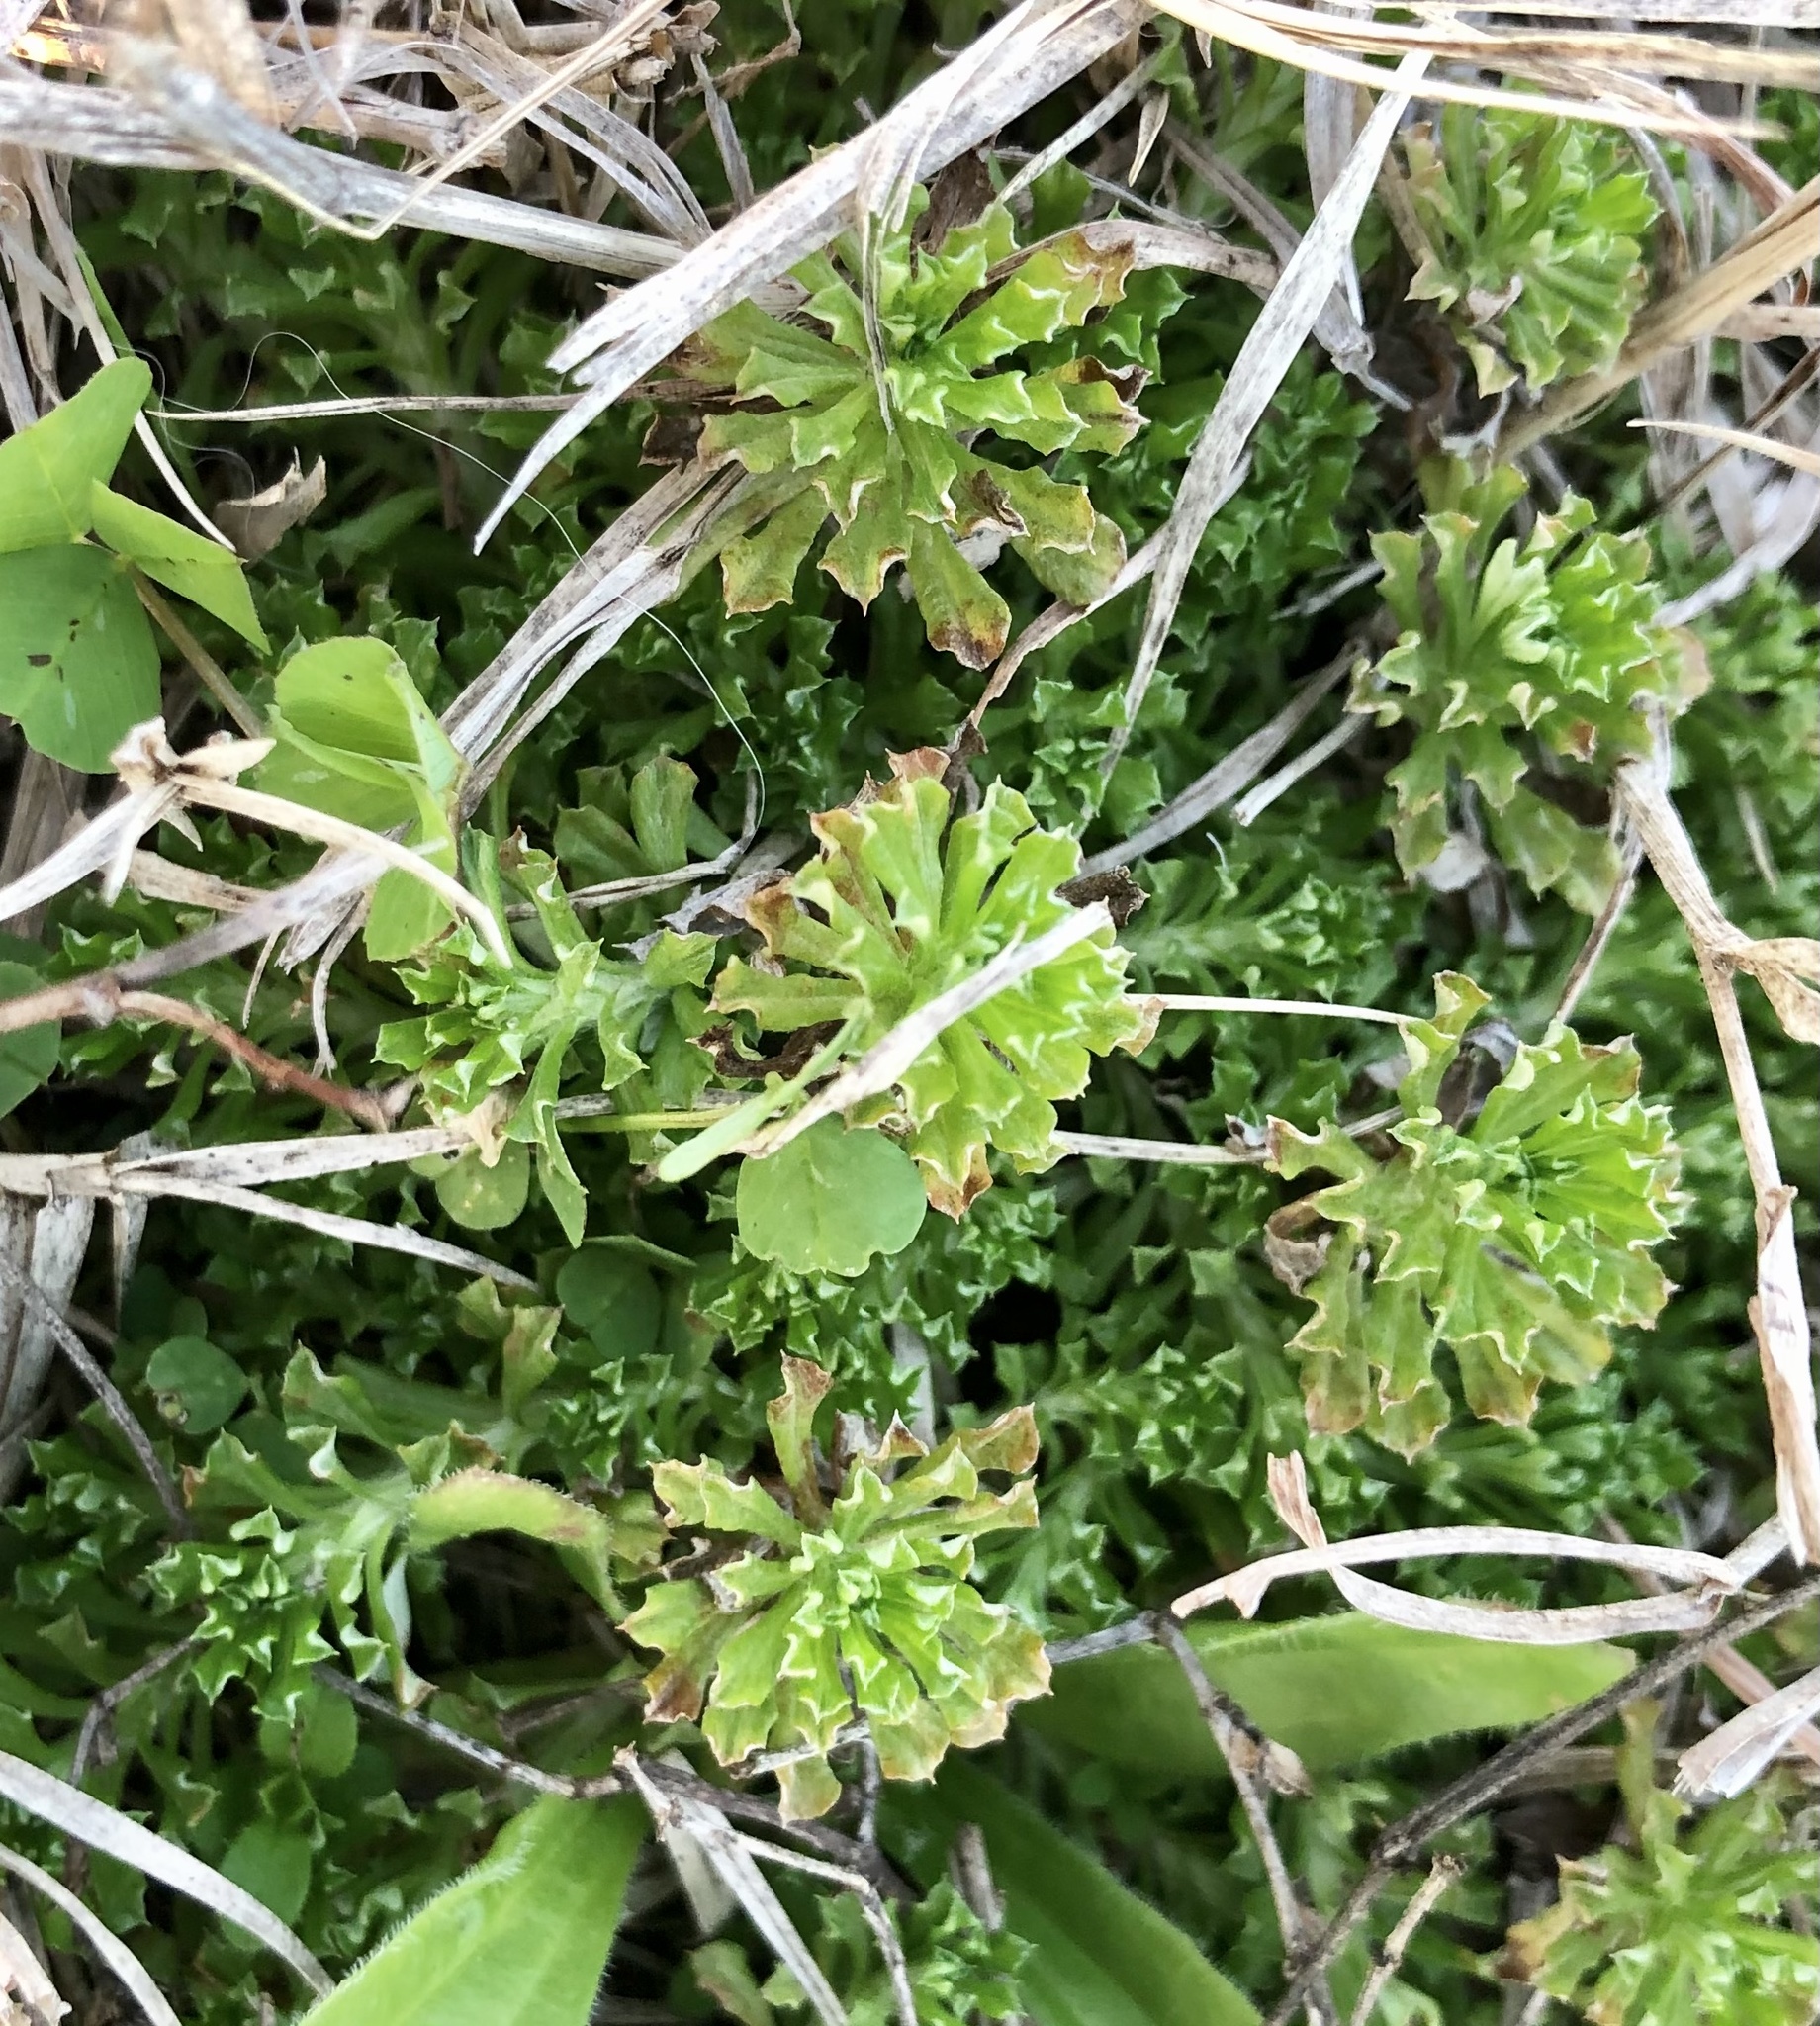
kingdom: Plantae
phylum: Tracheophyta
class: Magnoliopsida
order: Asterales
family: Asteraceae
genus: Facelis
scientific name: Facelis retusa
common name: Annual trampweed
